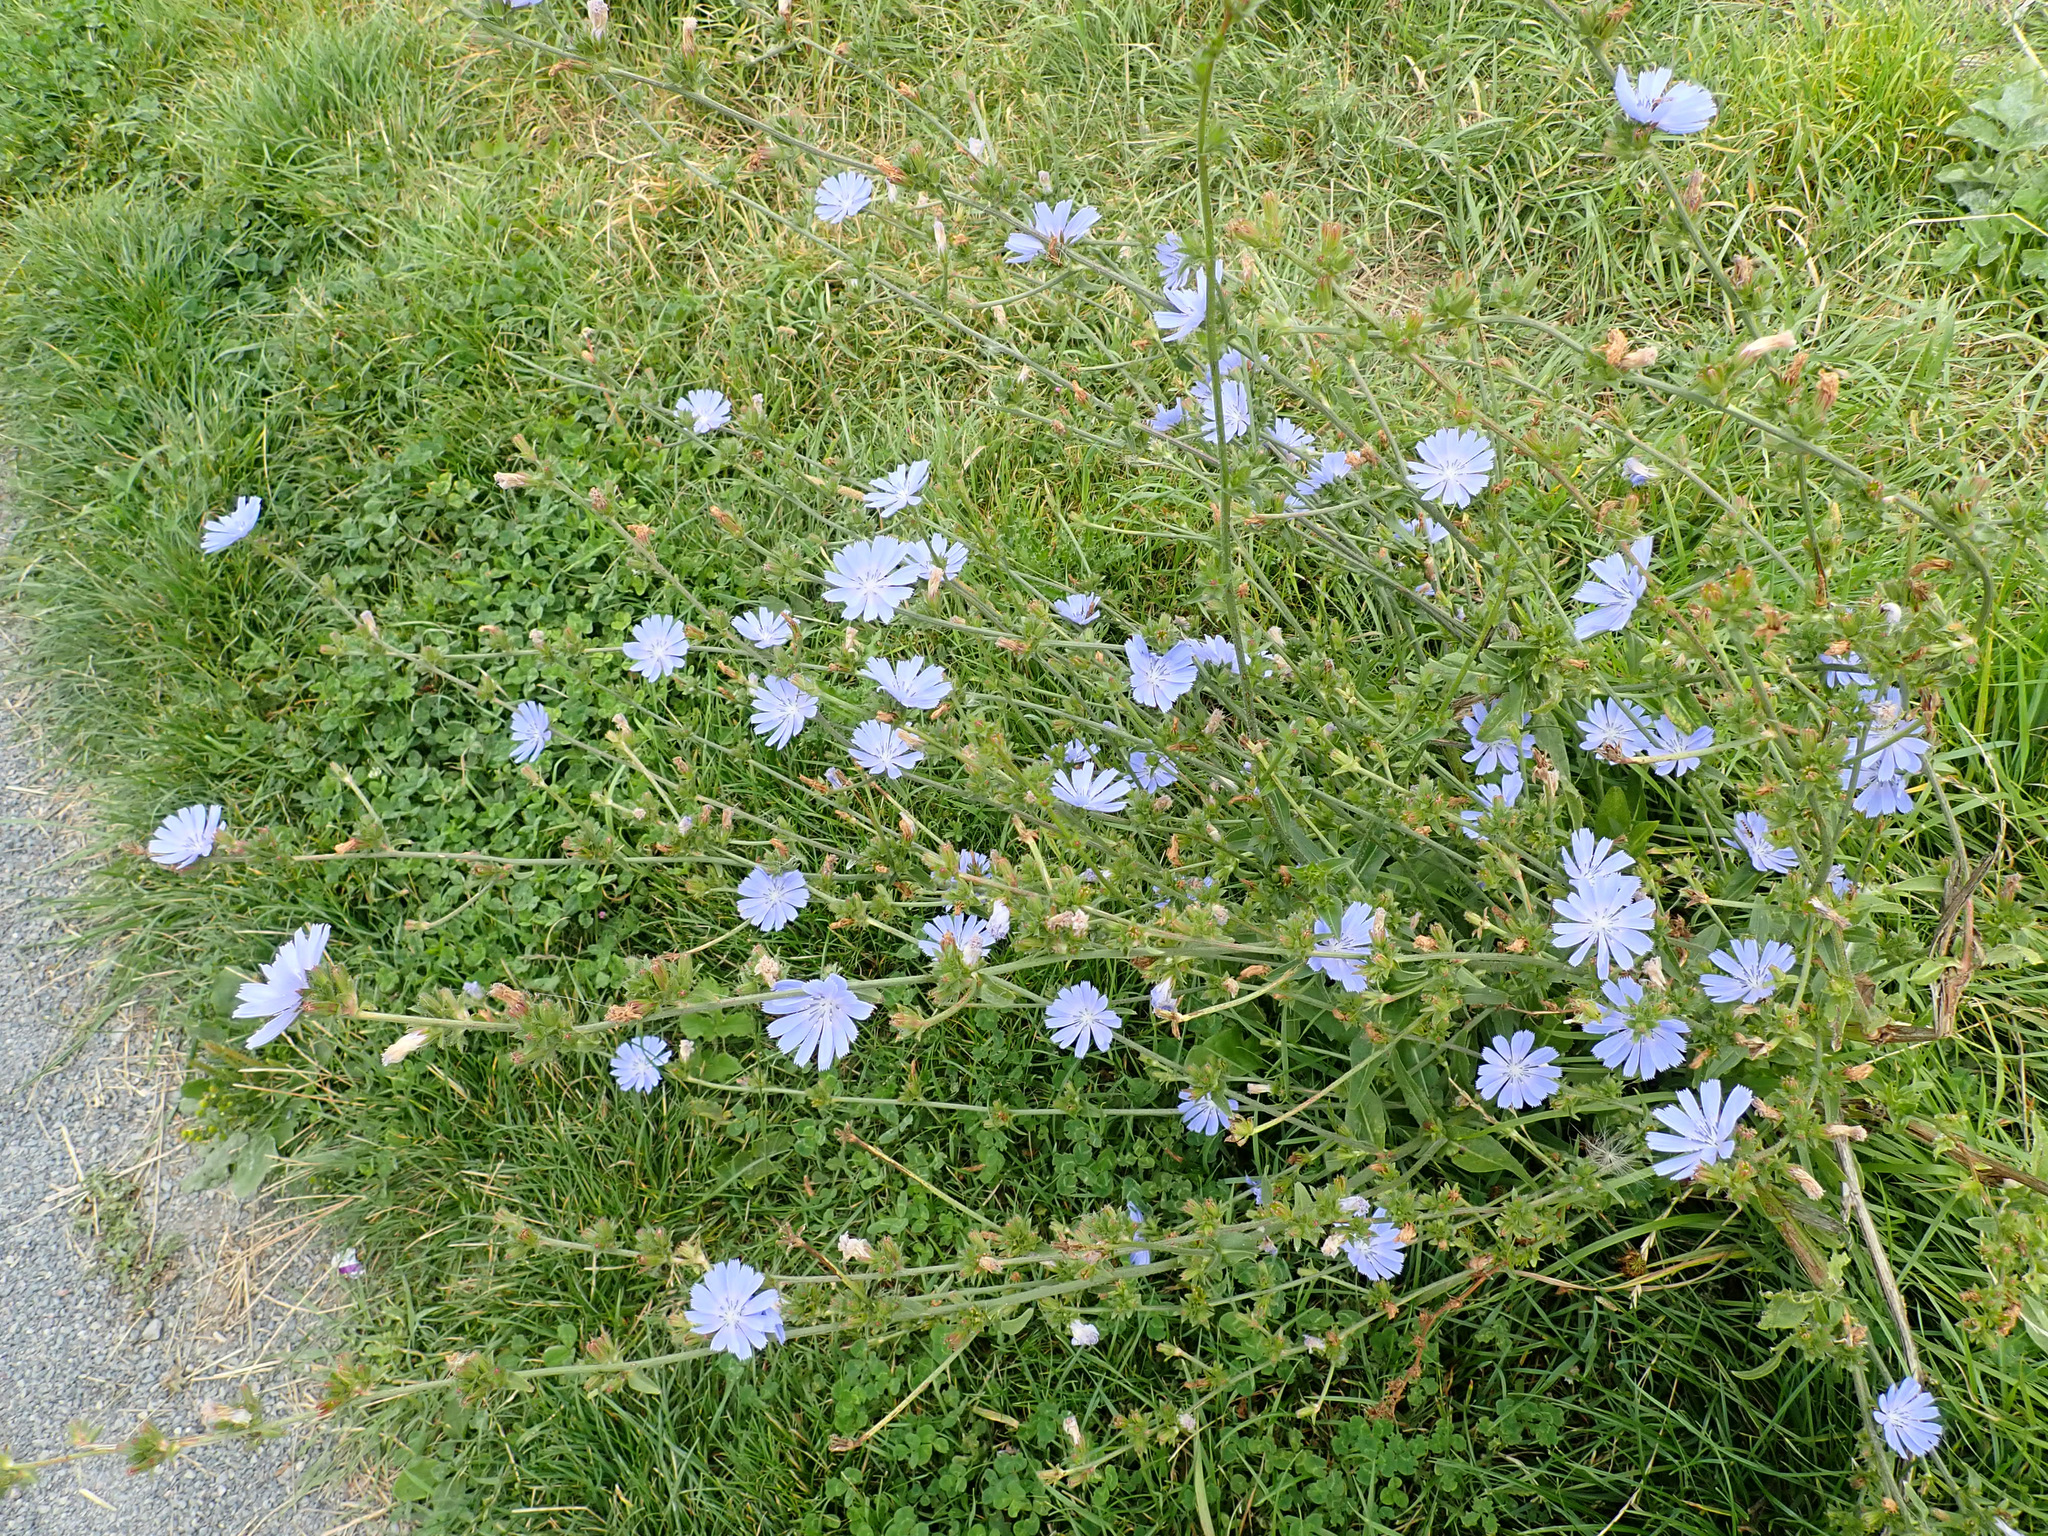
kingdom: Plantae
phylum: Tracheophyta
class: Magnoliopsida
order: Asterales
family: Asteraceae
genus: Cichorium
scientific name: Cichorium intybus
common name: Chicory
